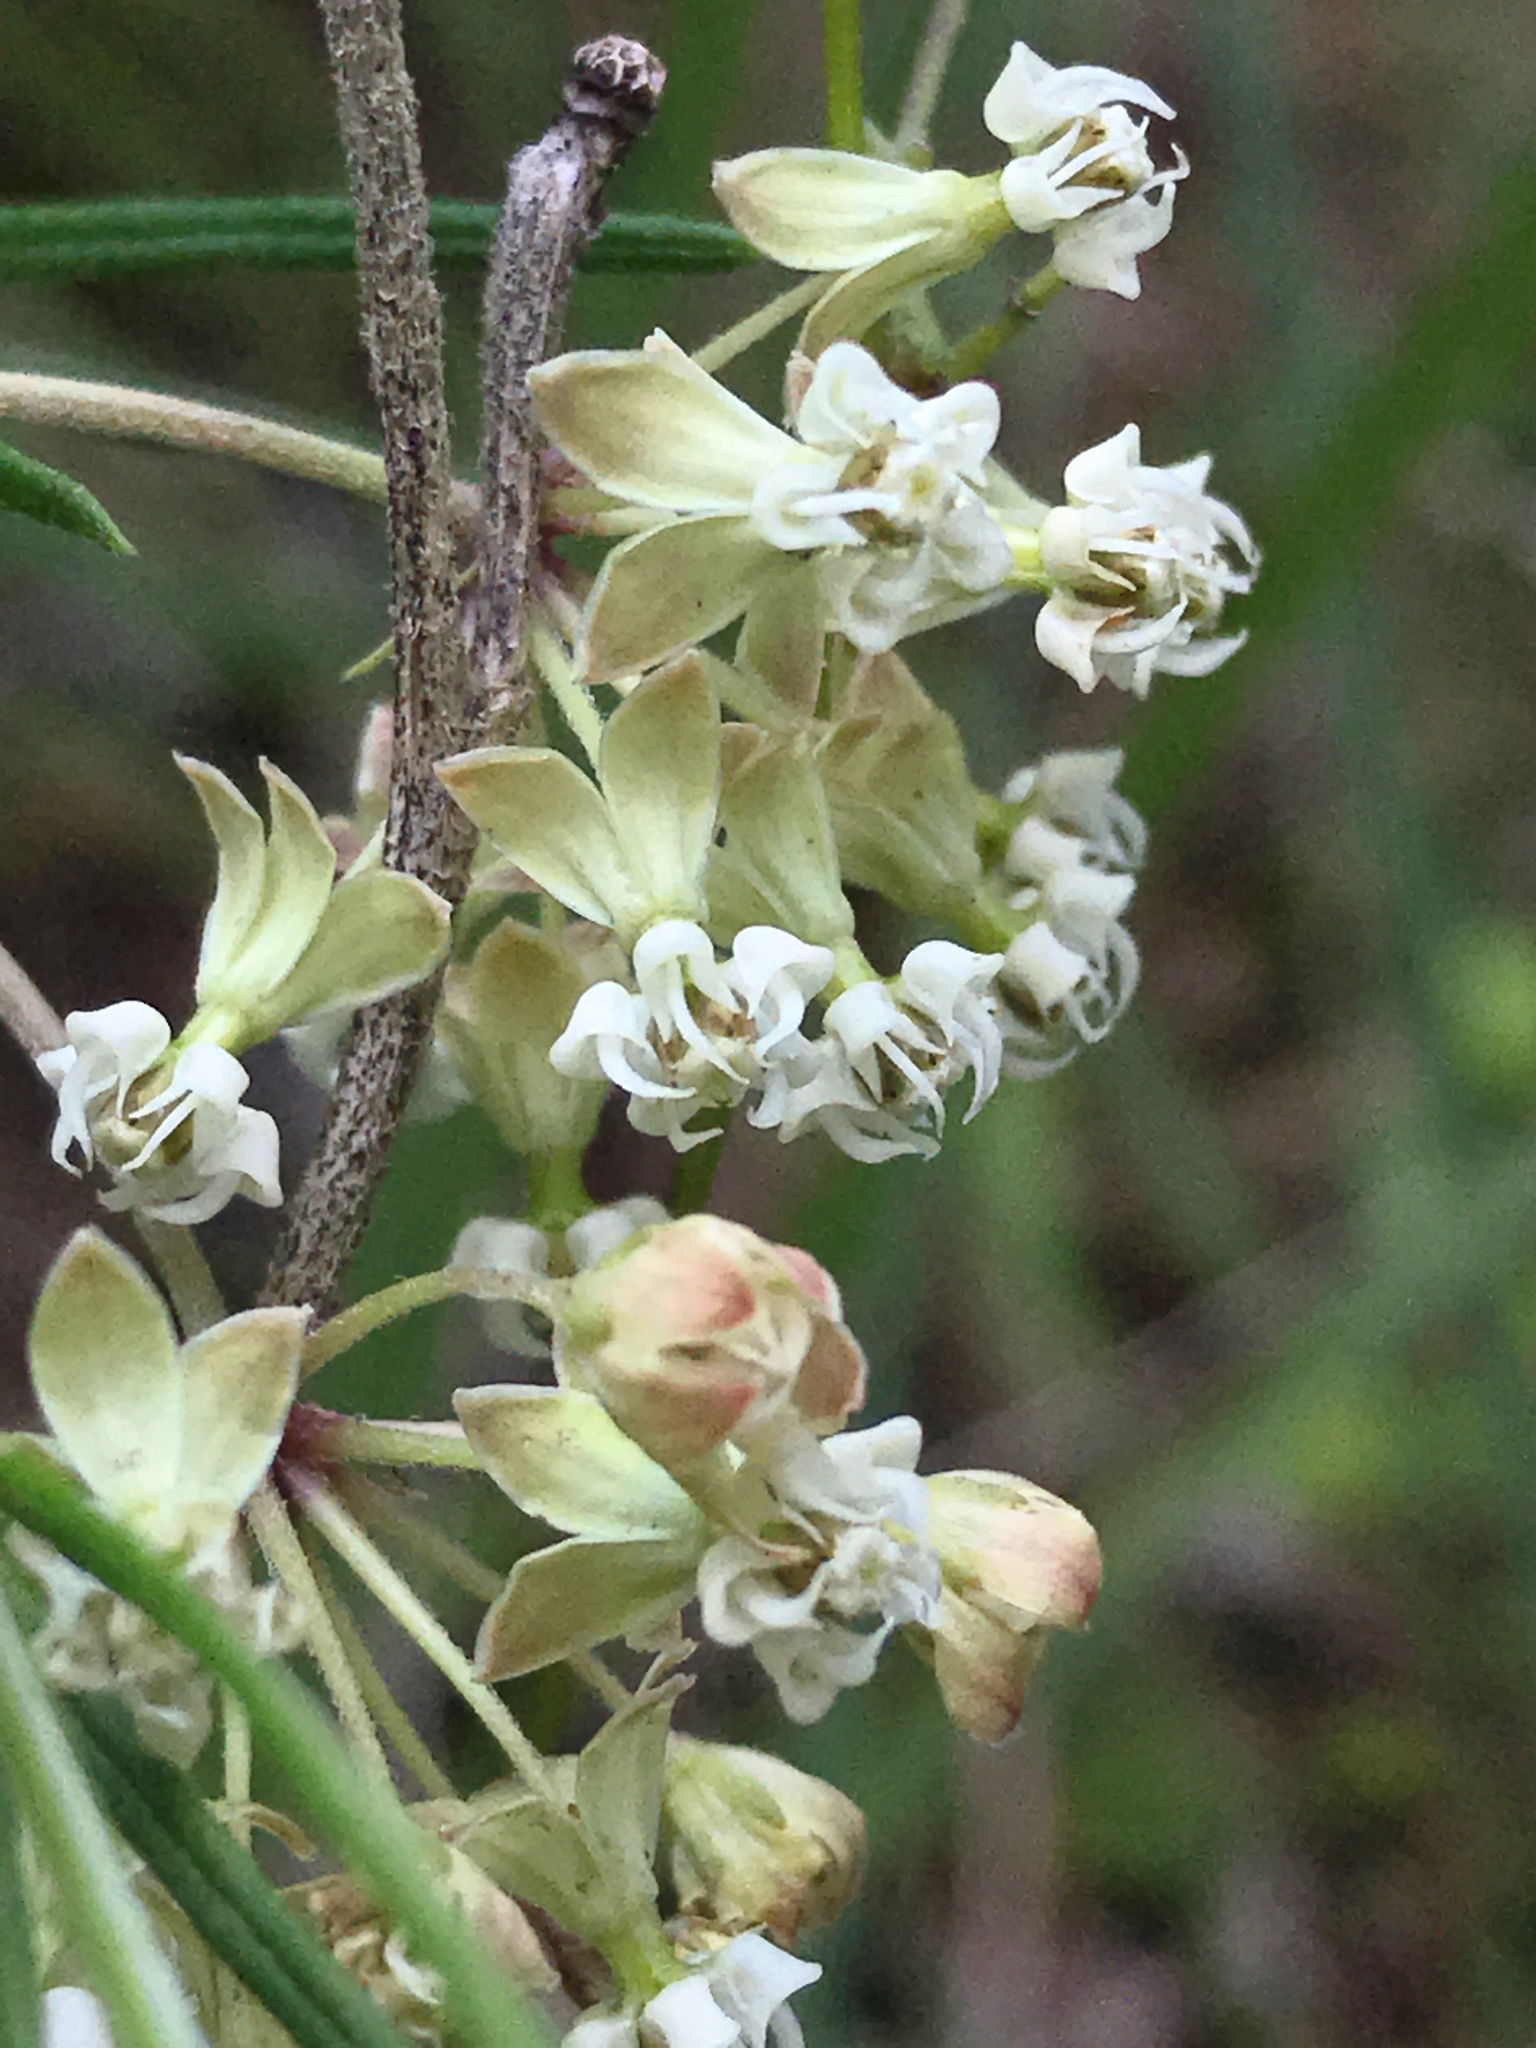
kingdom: Plantae
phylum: Tracheophyta
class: Magnoliopsida
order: Gentianales
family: Apocynaceae
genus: Asclepias
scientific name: Asclepias verticillata
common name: Eastern whorled milkweed
